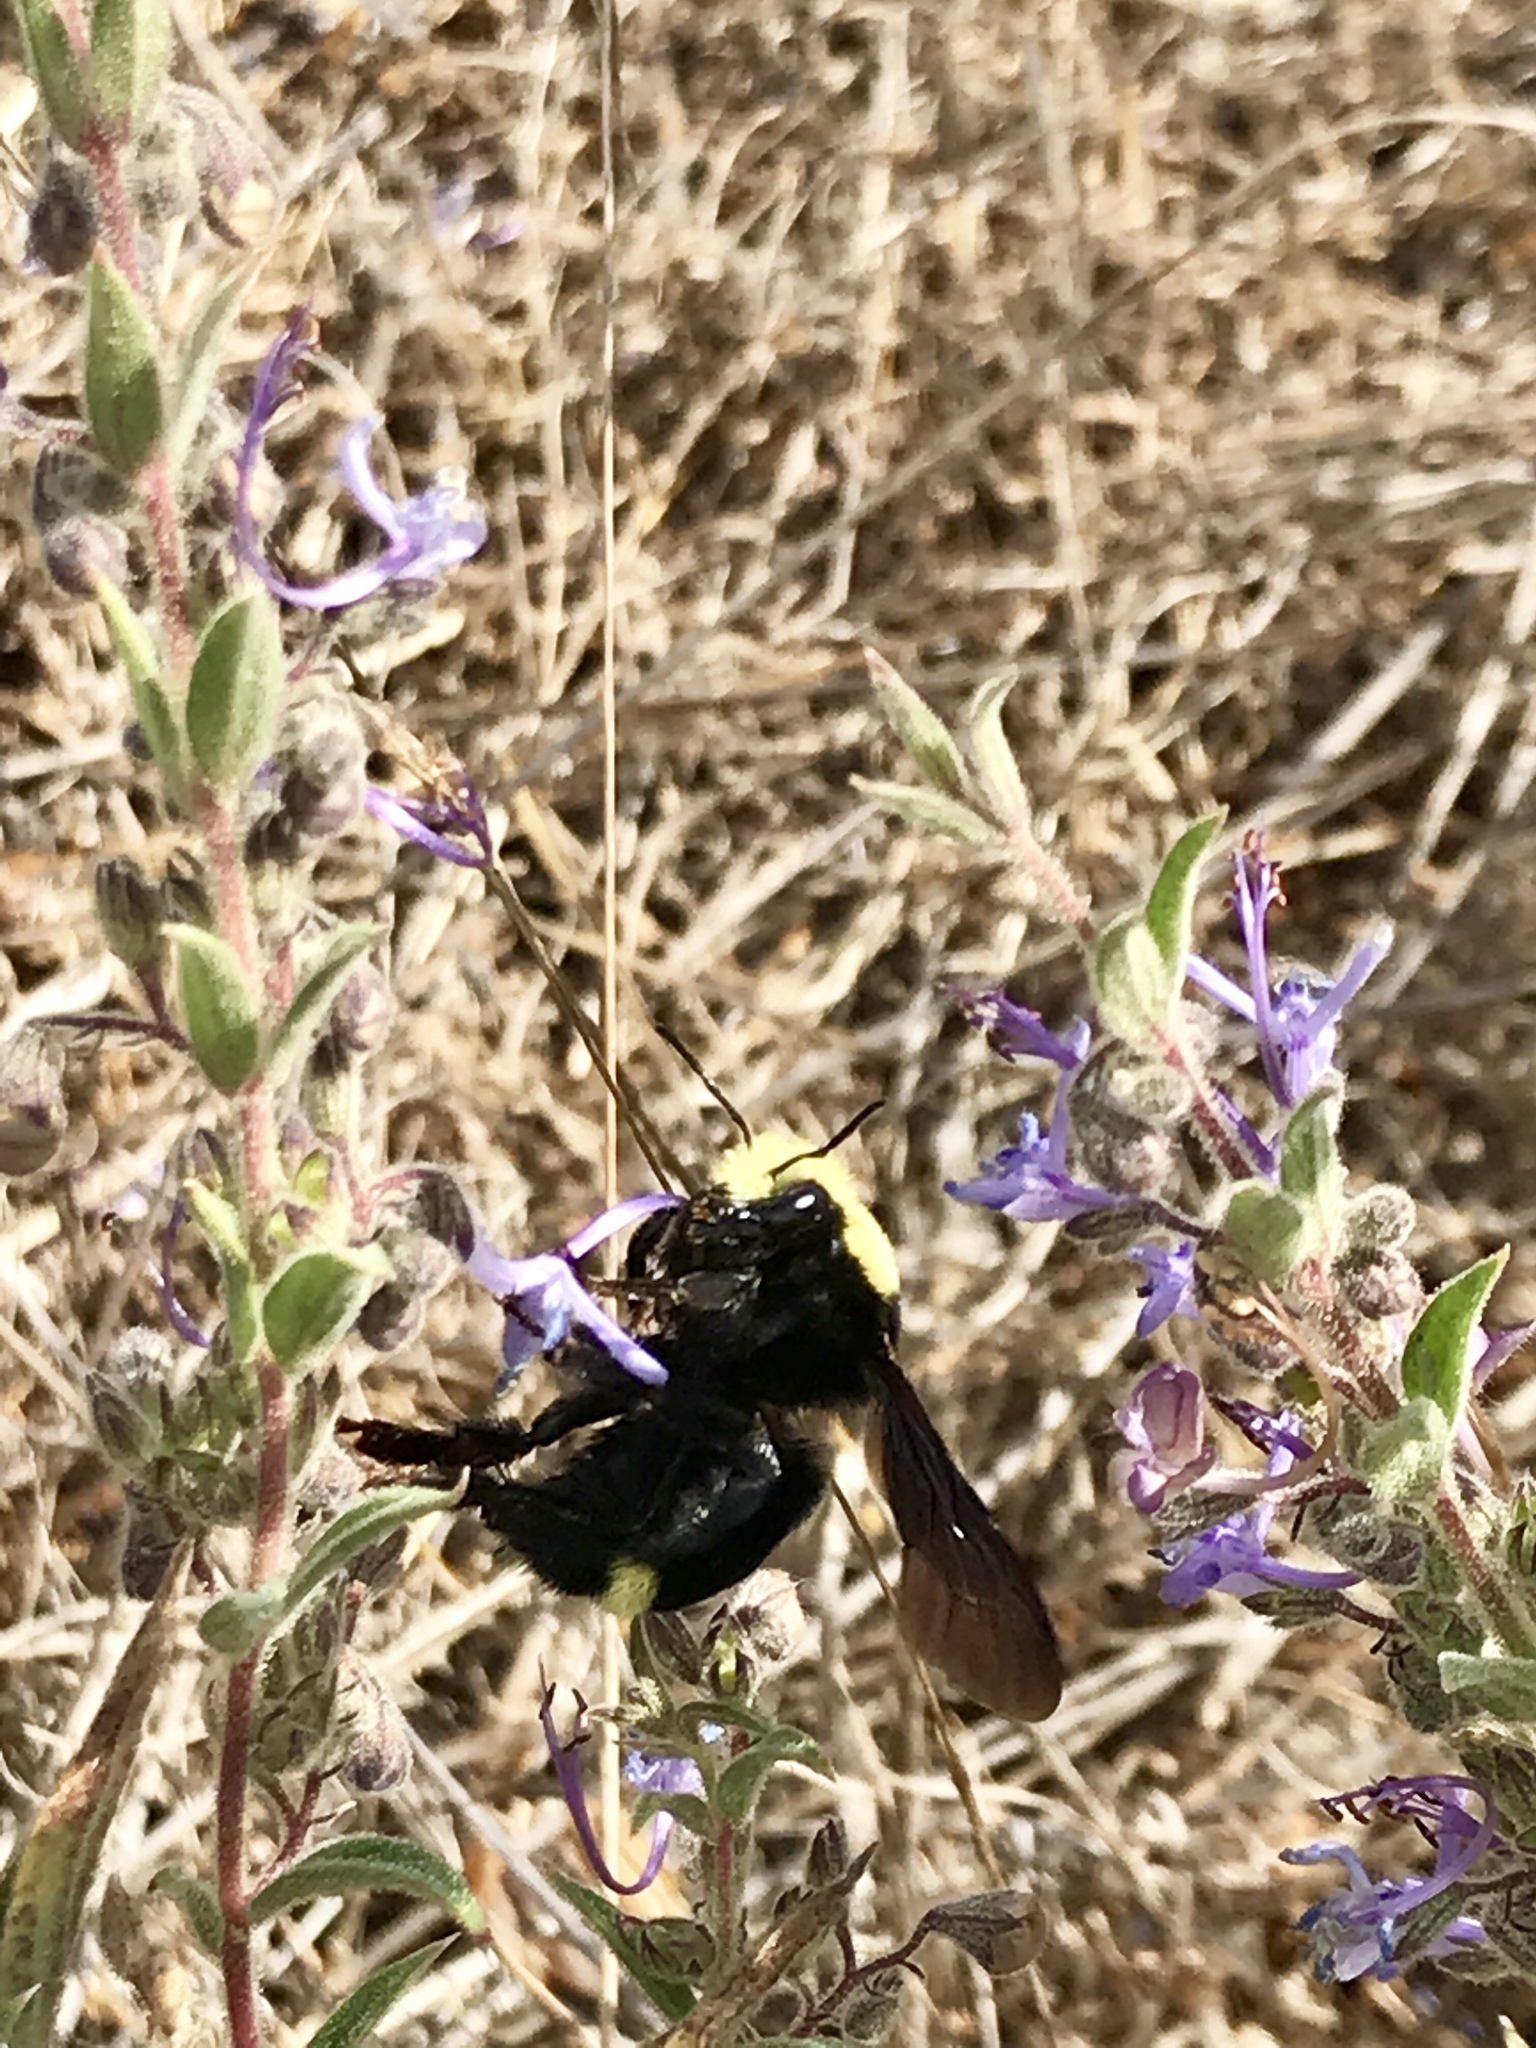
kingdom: Animalia
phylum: Arthropoda
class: Insecta
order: Hymenoptera
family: Apidae
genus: Bombus
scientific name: Bombus vosnesenskii
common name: Vosnesensky bumble bee
